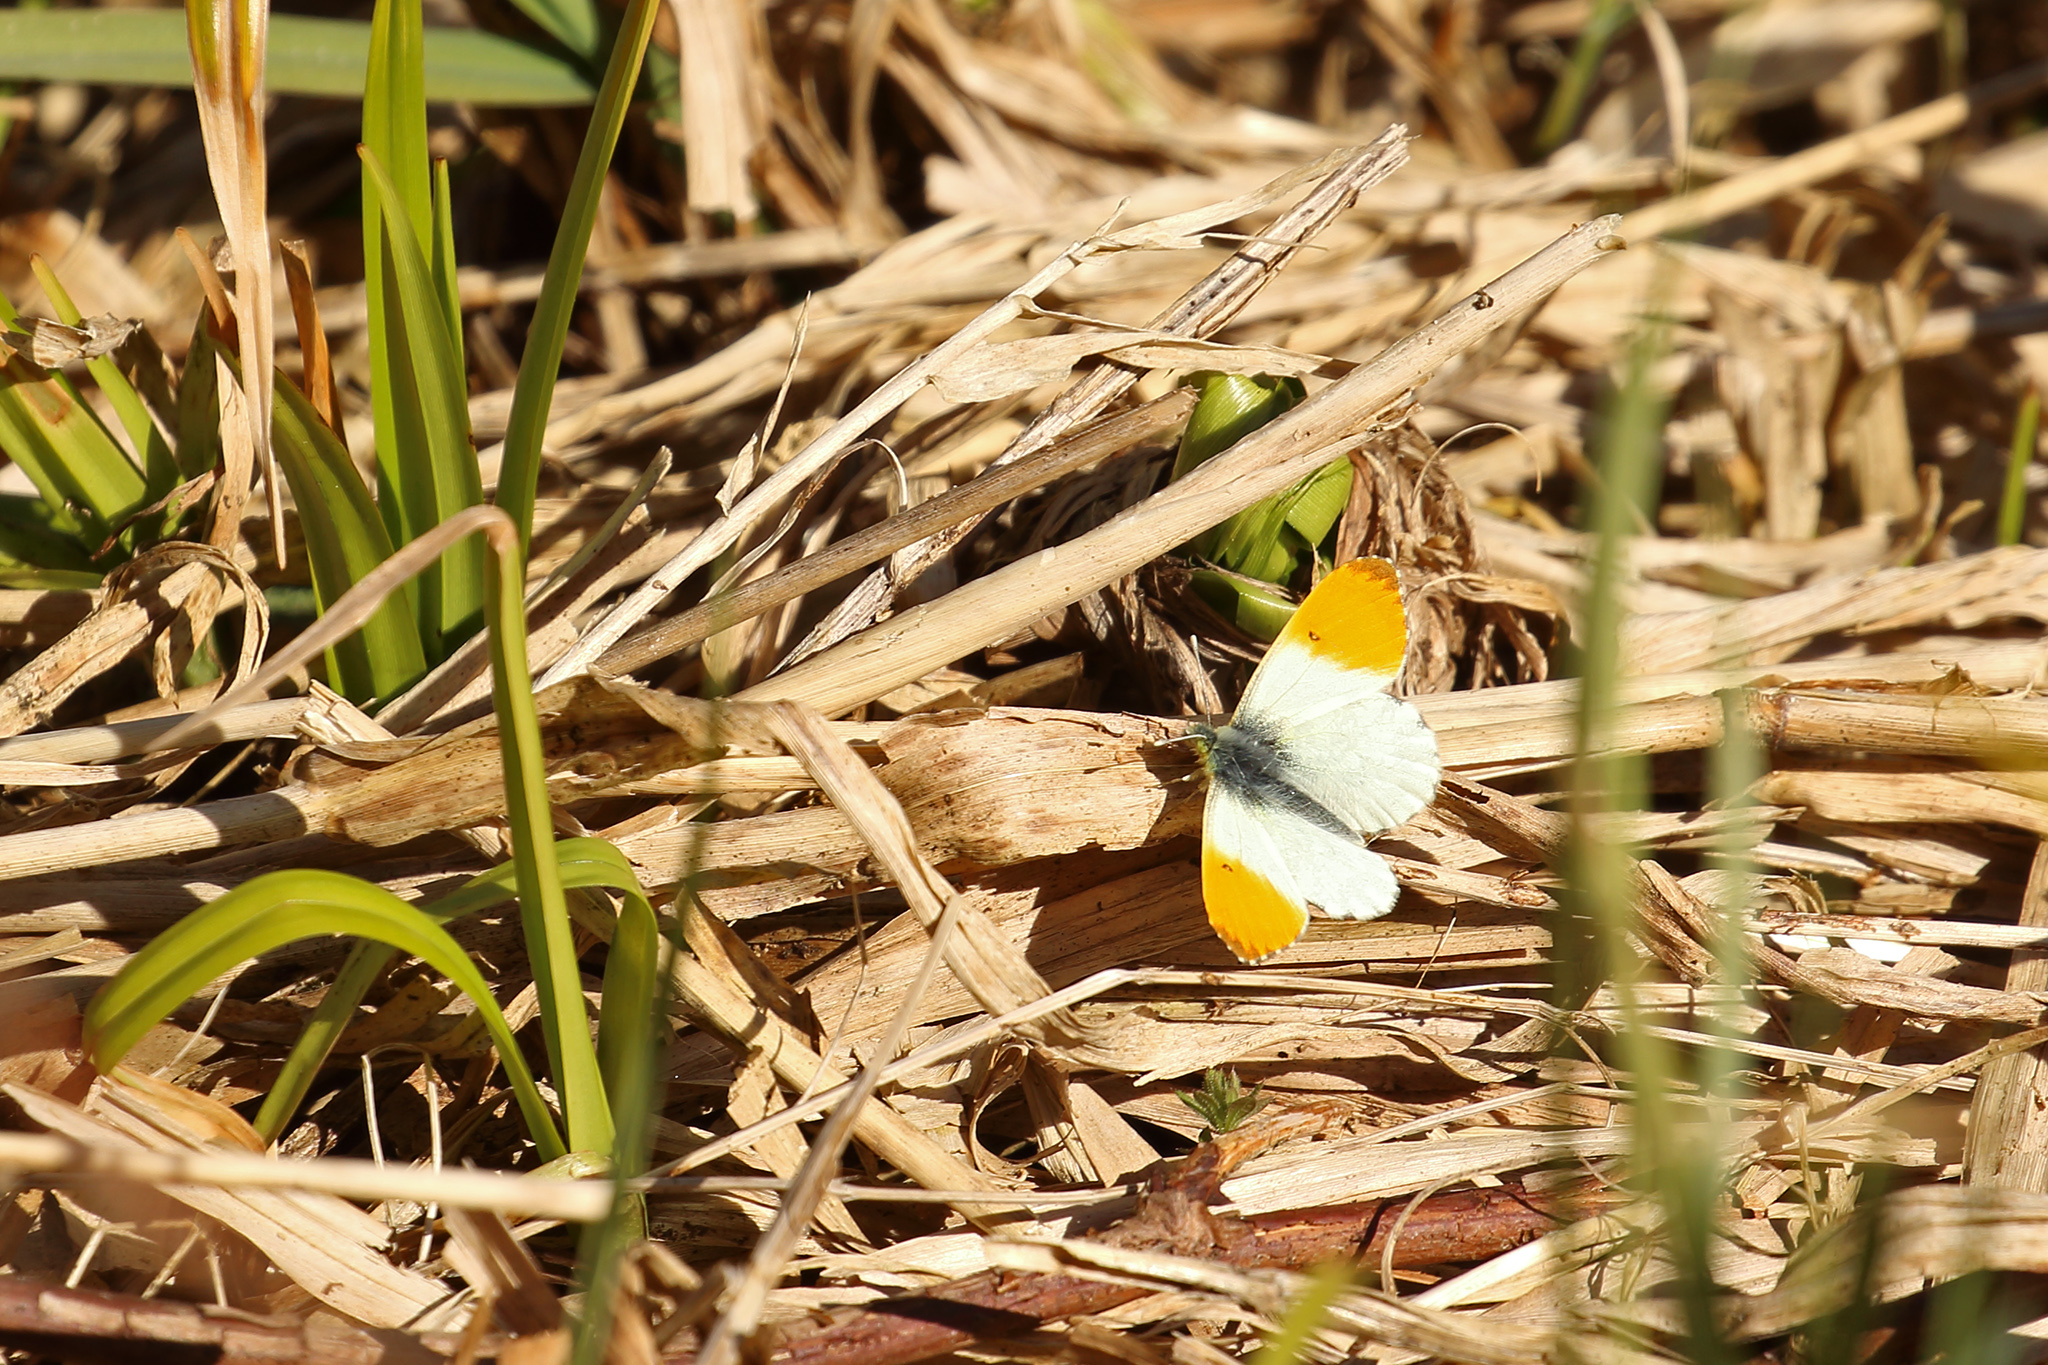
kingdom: Animalia
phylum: Arthropoda
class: Insecta
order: Lepidoptera
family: Pieridae
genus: Anthocharis
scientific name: Anthocharis cardamines
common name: Orange-tip
